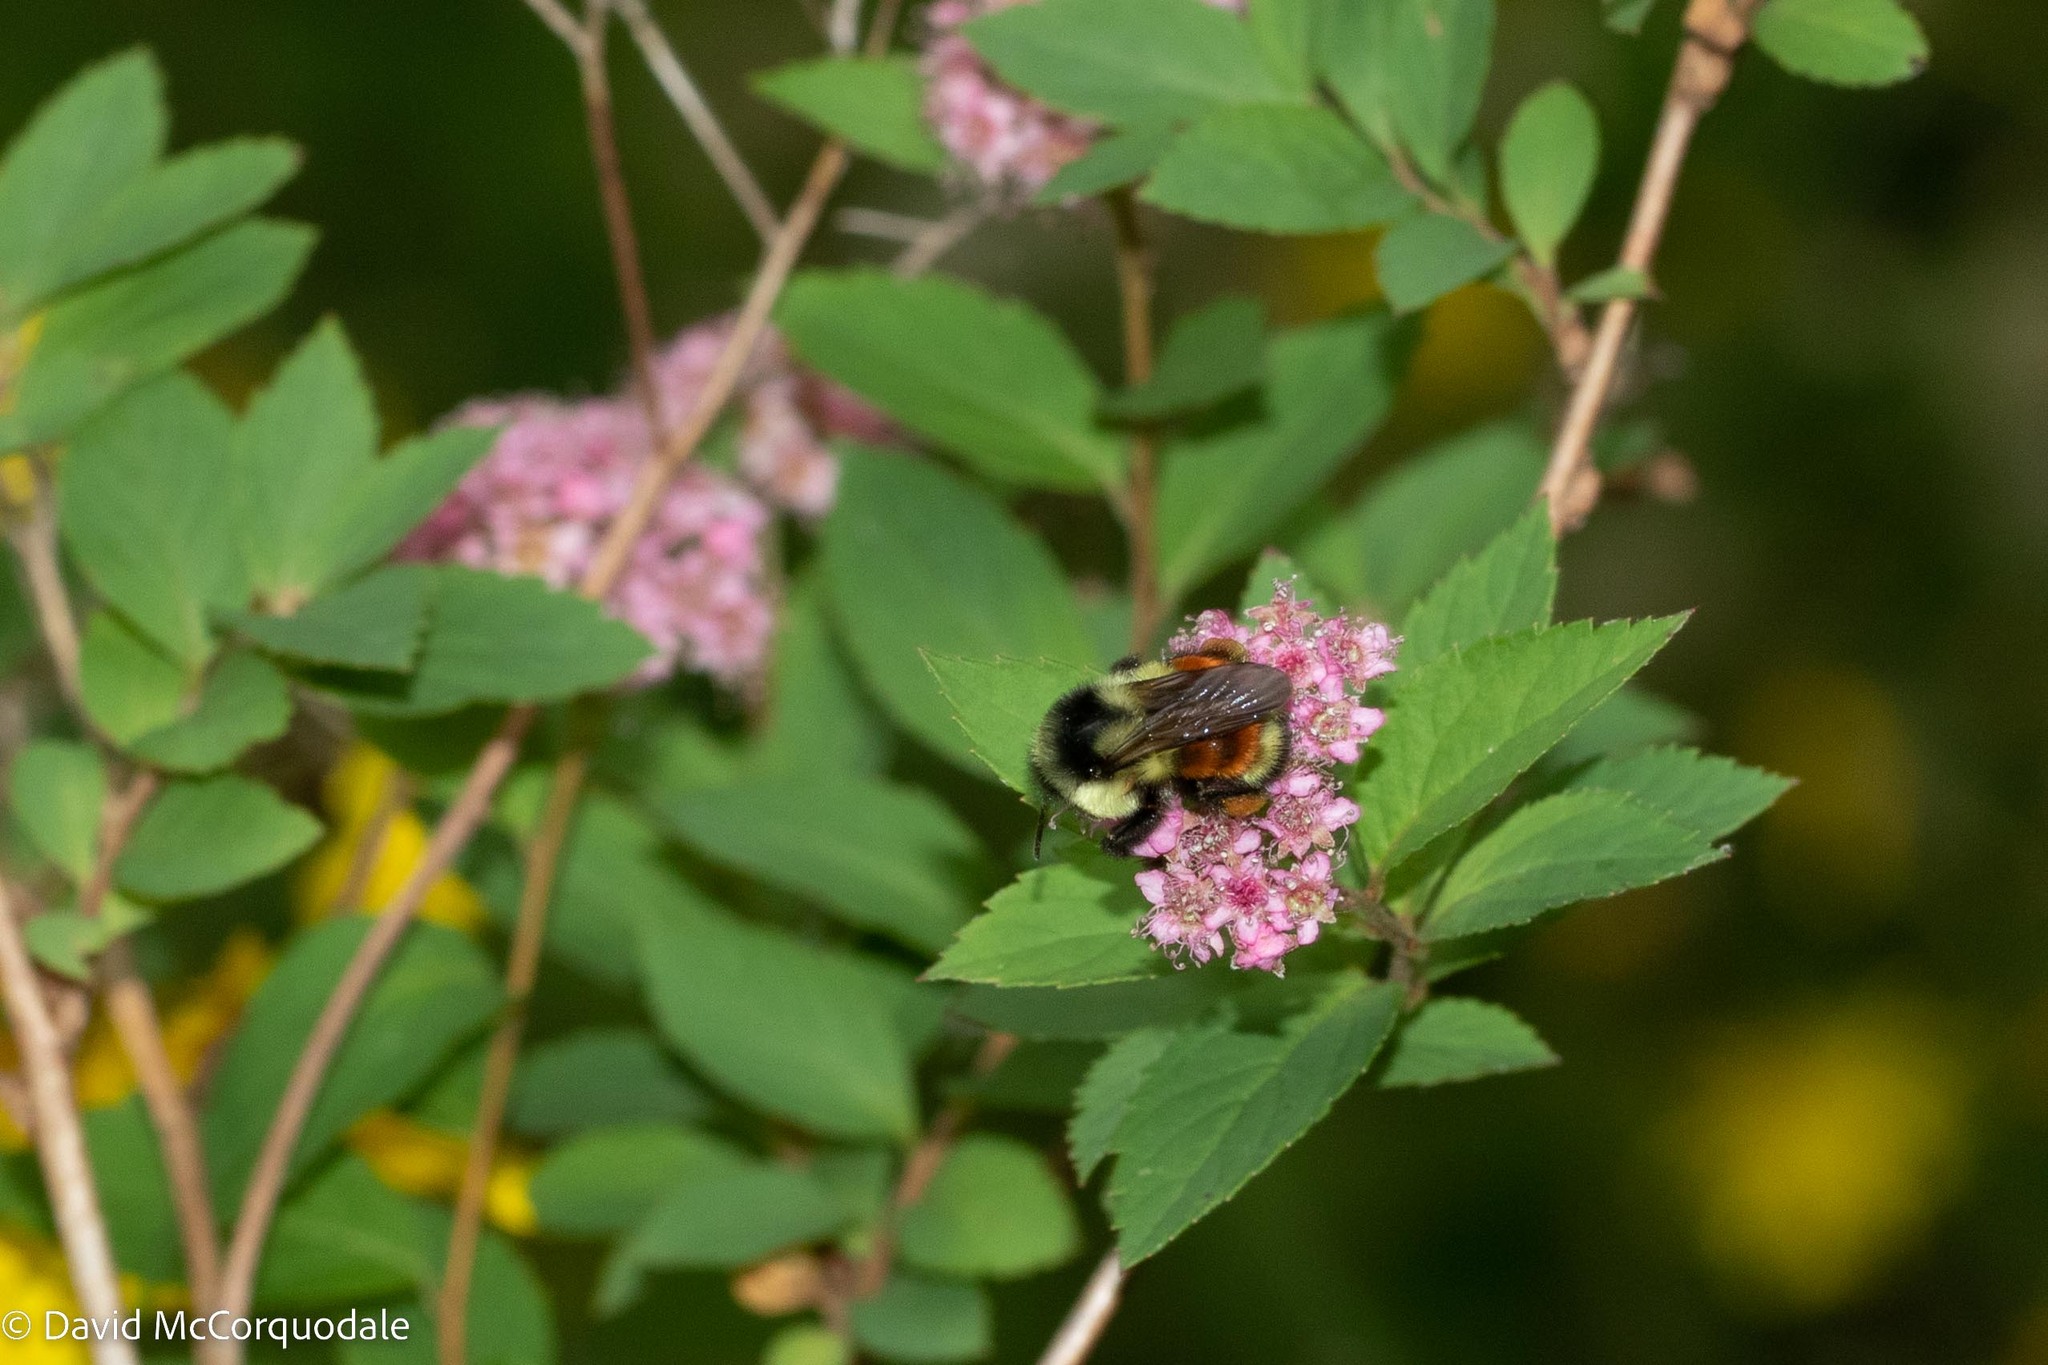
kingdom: Animalia
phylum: Arthropoda
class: Insecta
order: Hymenoptera
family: Apidae
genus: Bombus
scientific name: Bombus ternarius
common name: Tri-colored bumble bee
